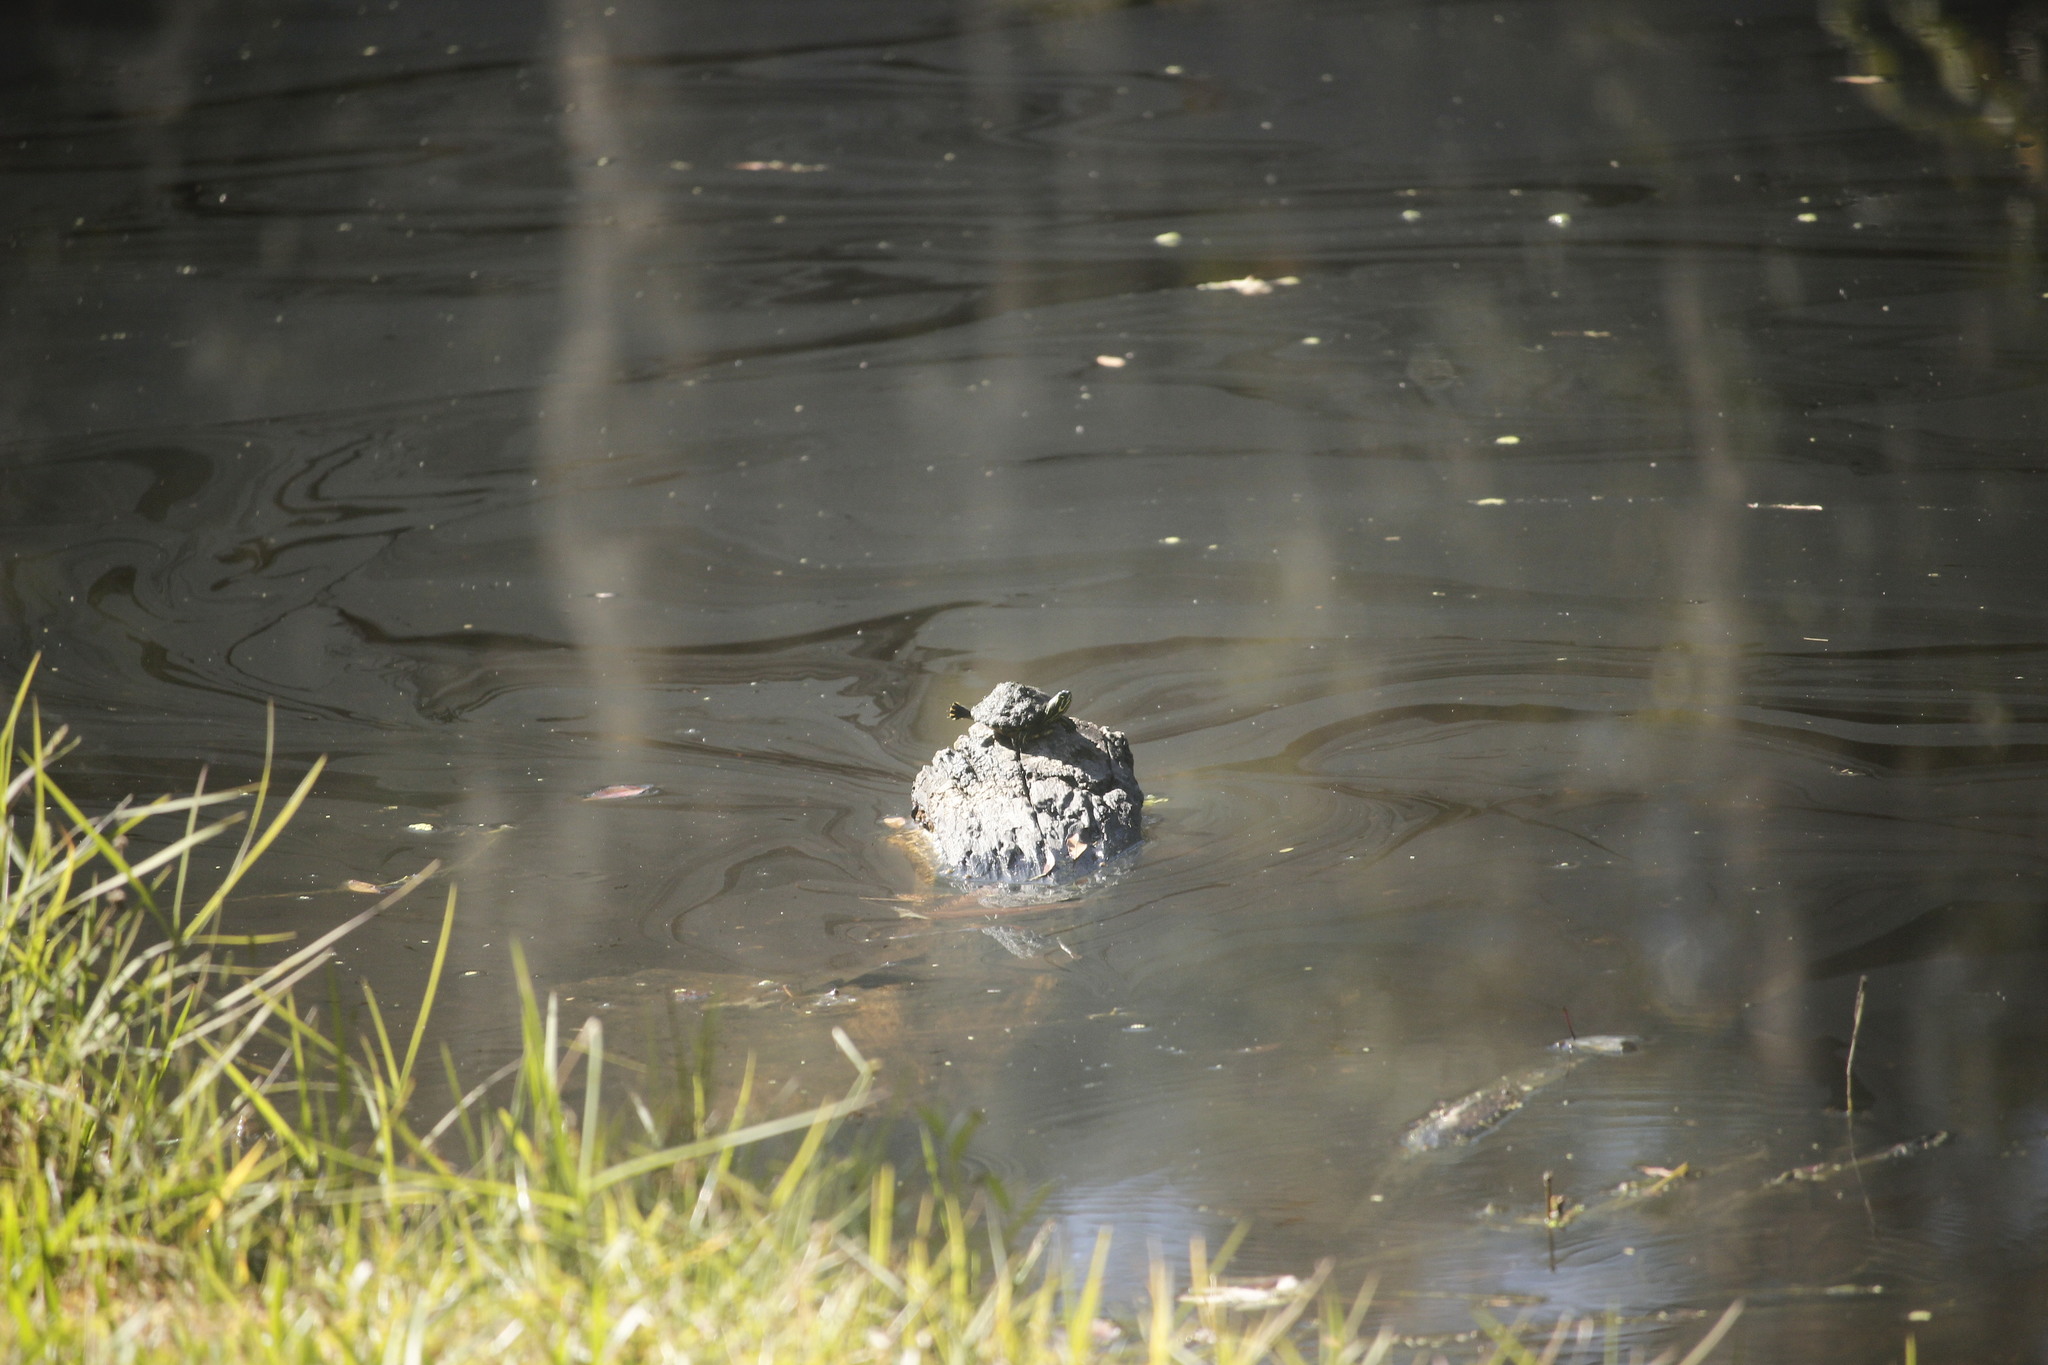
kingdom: Animalia
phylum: Chordata
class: Testudines
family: Emydidae
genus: Trachemys
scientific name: Trachemys scripta
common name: Slider
